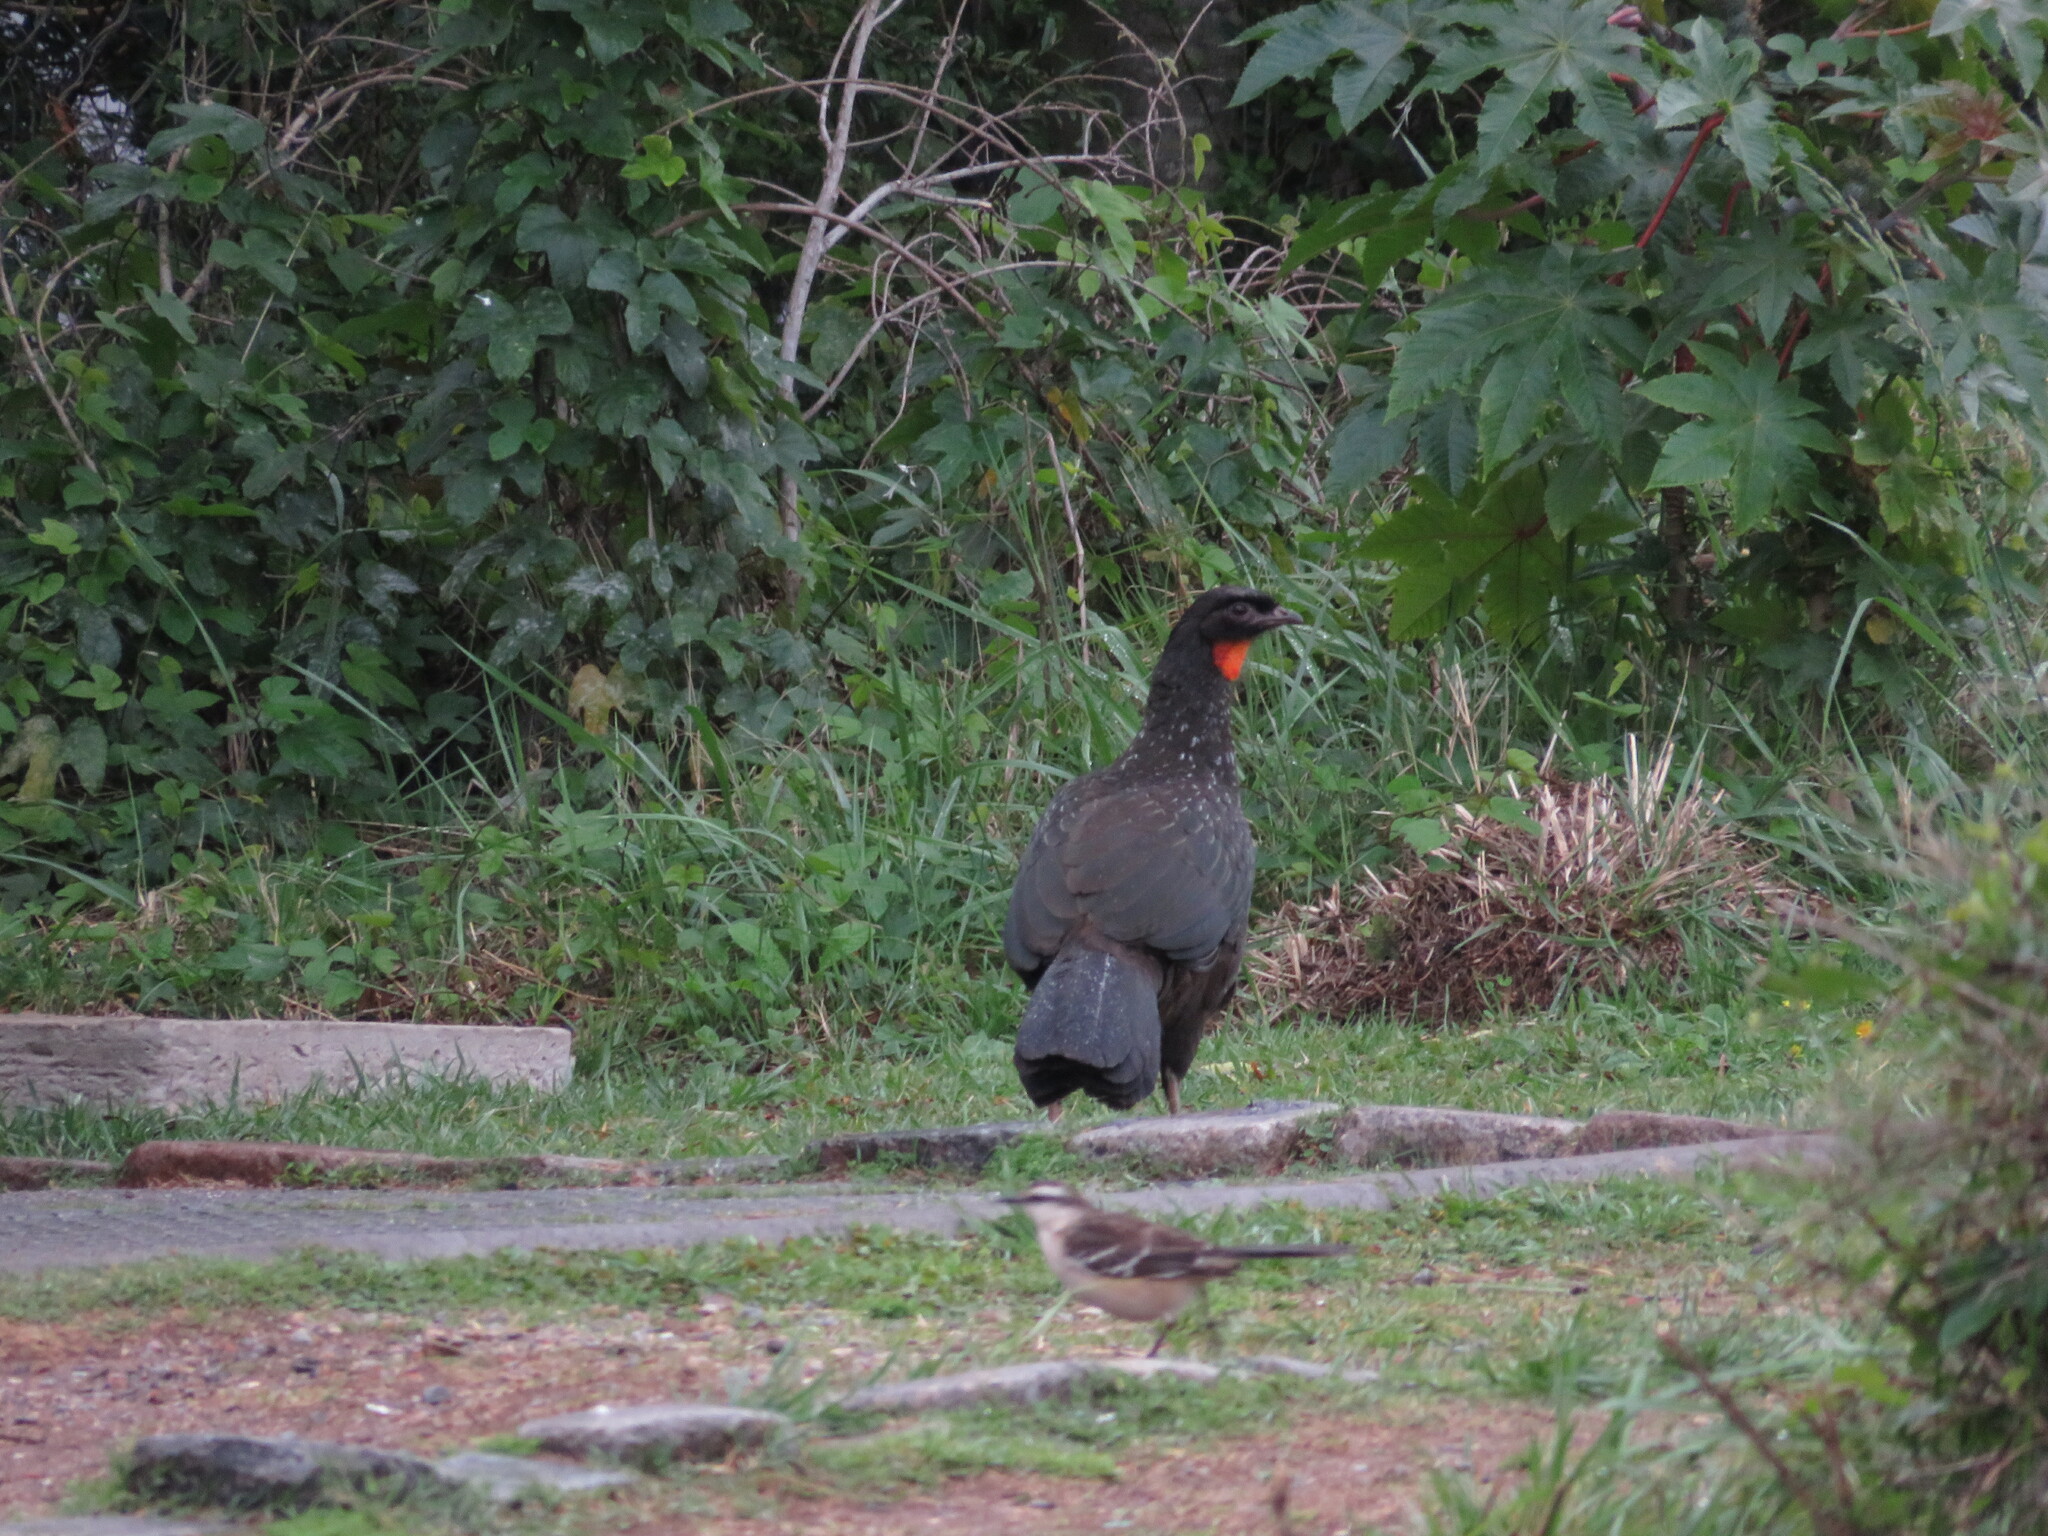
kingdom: Animalia
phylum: Chordata
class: Aves
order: Galliformes
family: Cracidae
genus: Penelope
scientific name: Penelope obscura
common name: Dusky-legged guan
